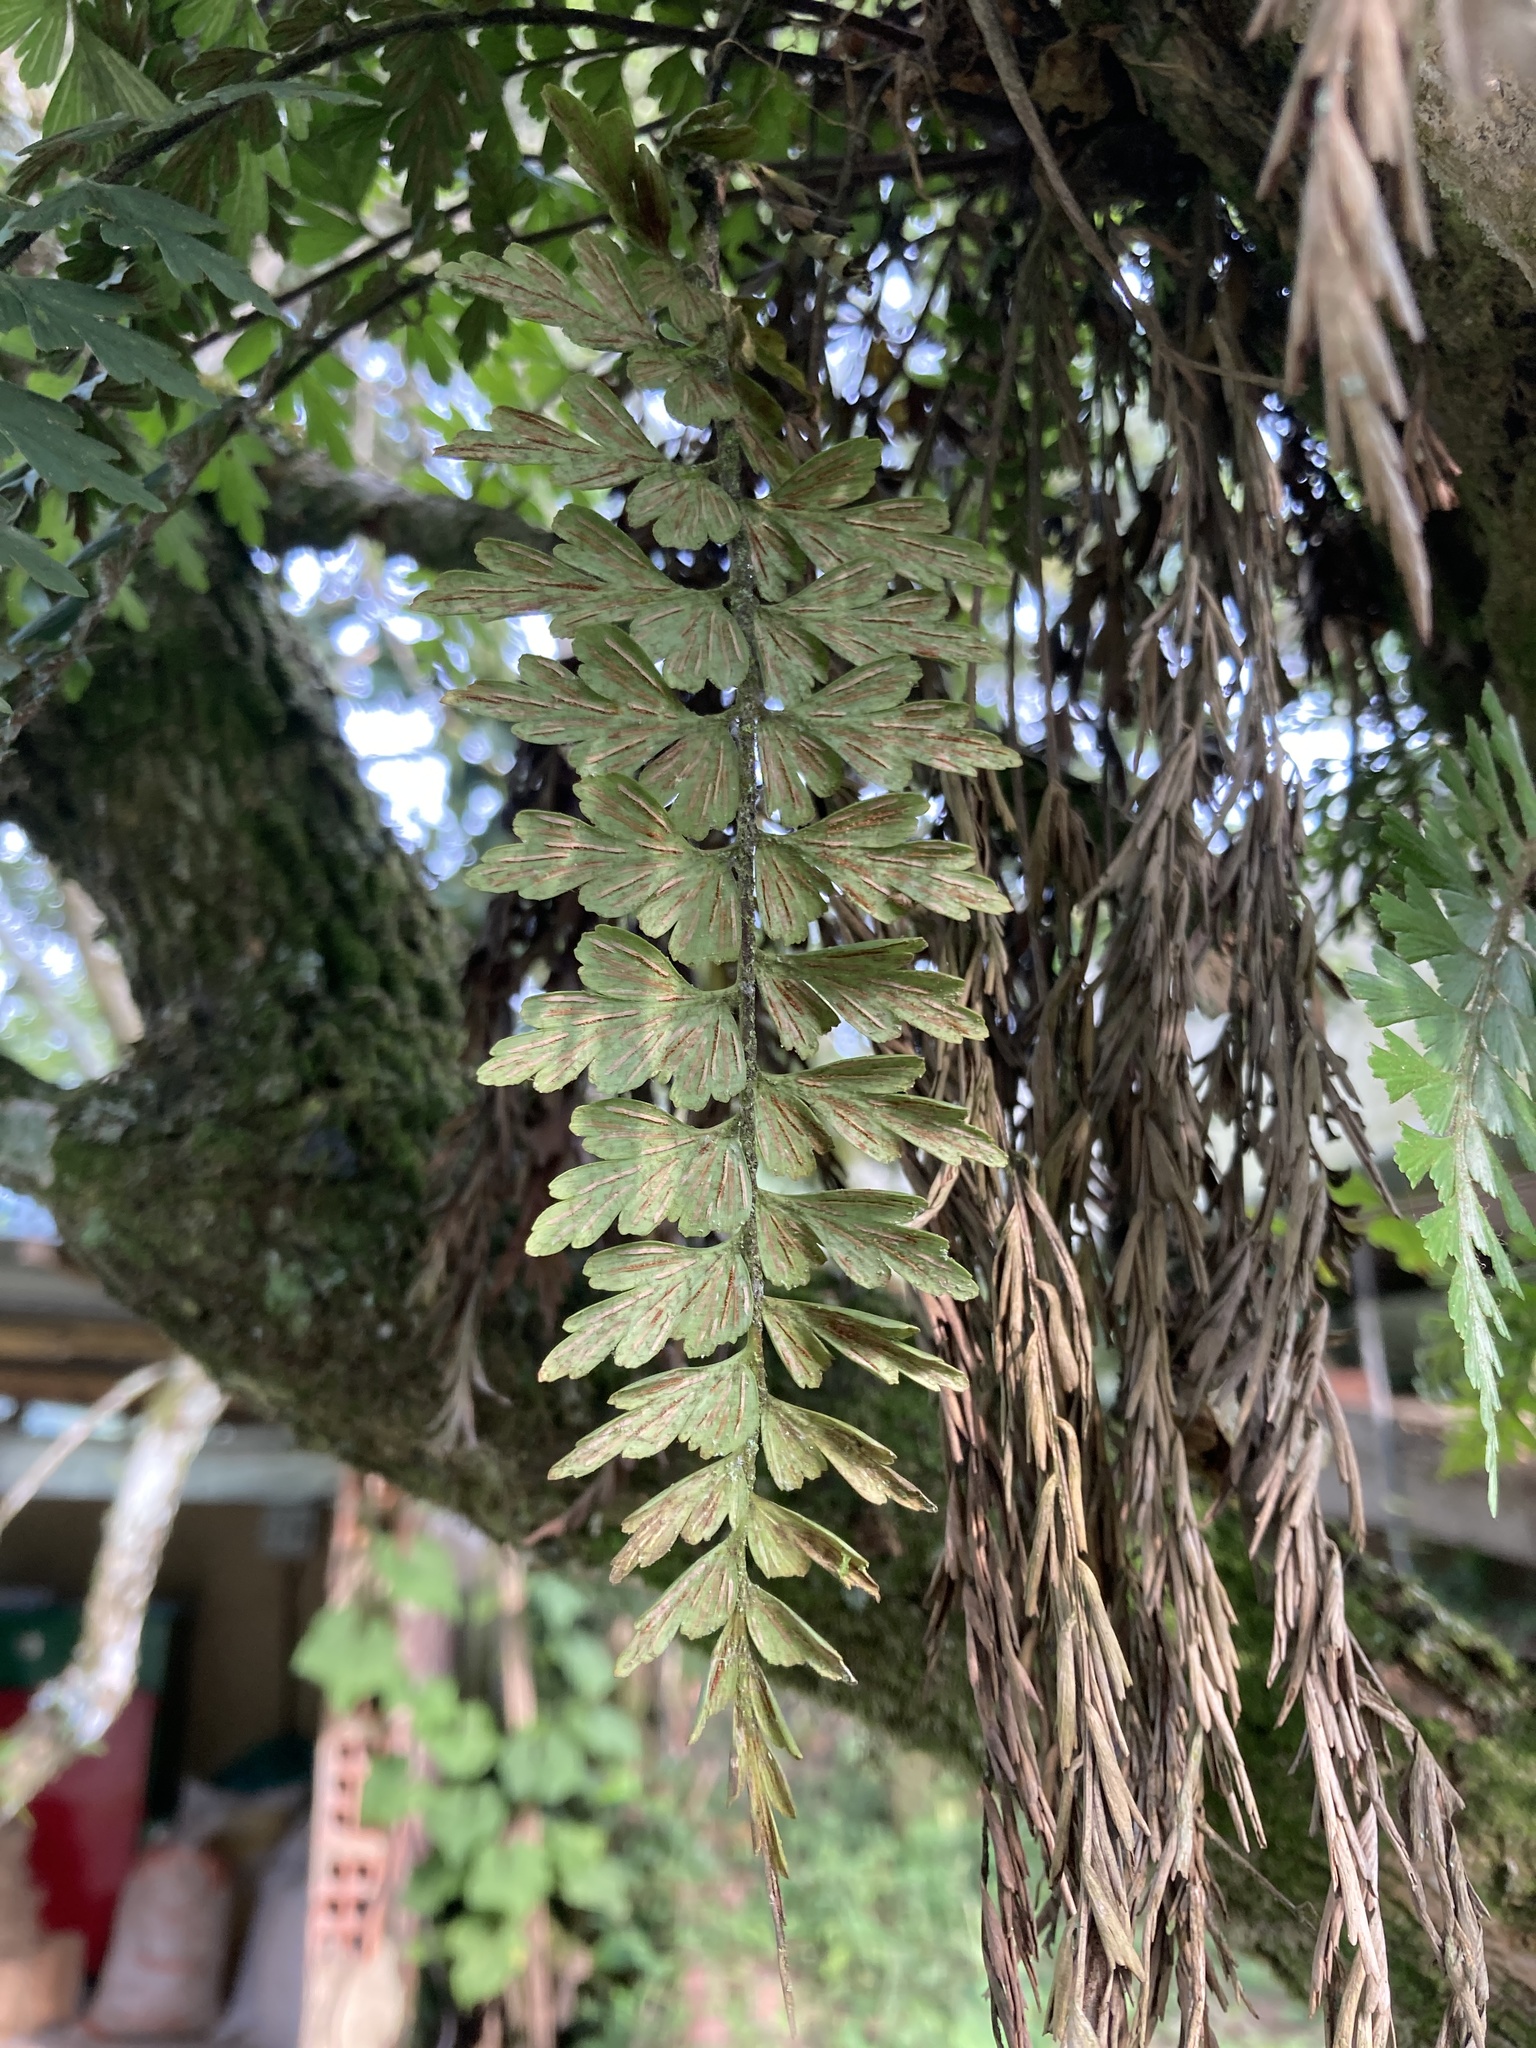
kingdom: Plantae
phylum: Tracheophyta
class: Polypodiopsida
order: Polypodiales
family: Aspleniaceae
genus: Asplenium
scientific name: Asplenium praemorsum
